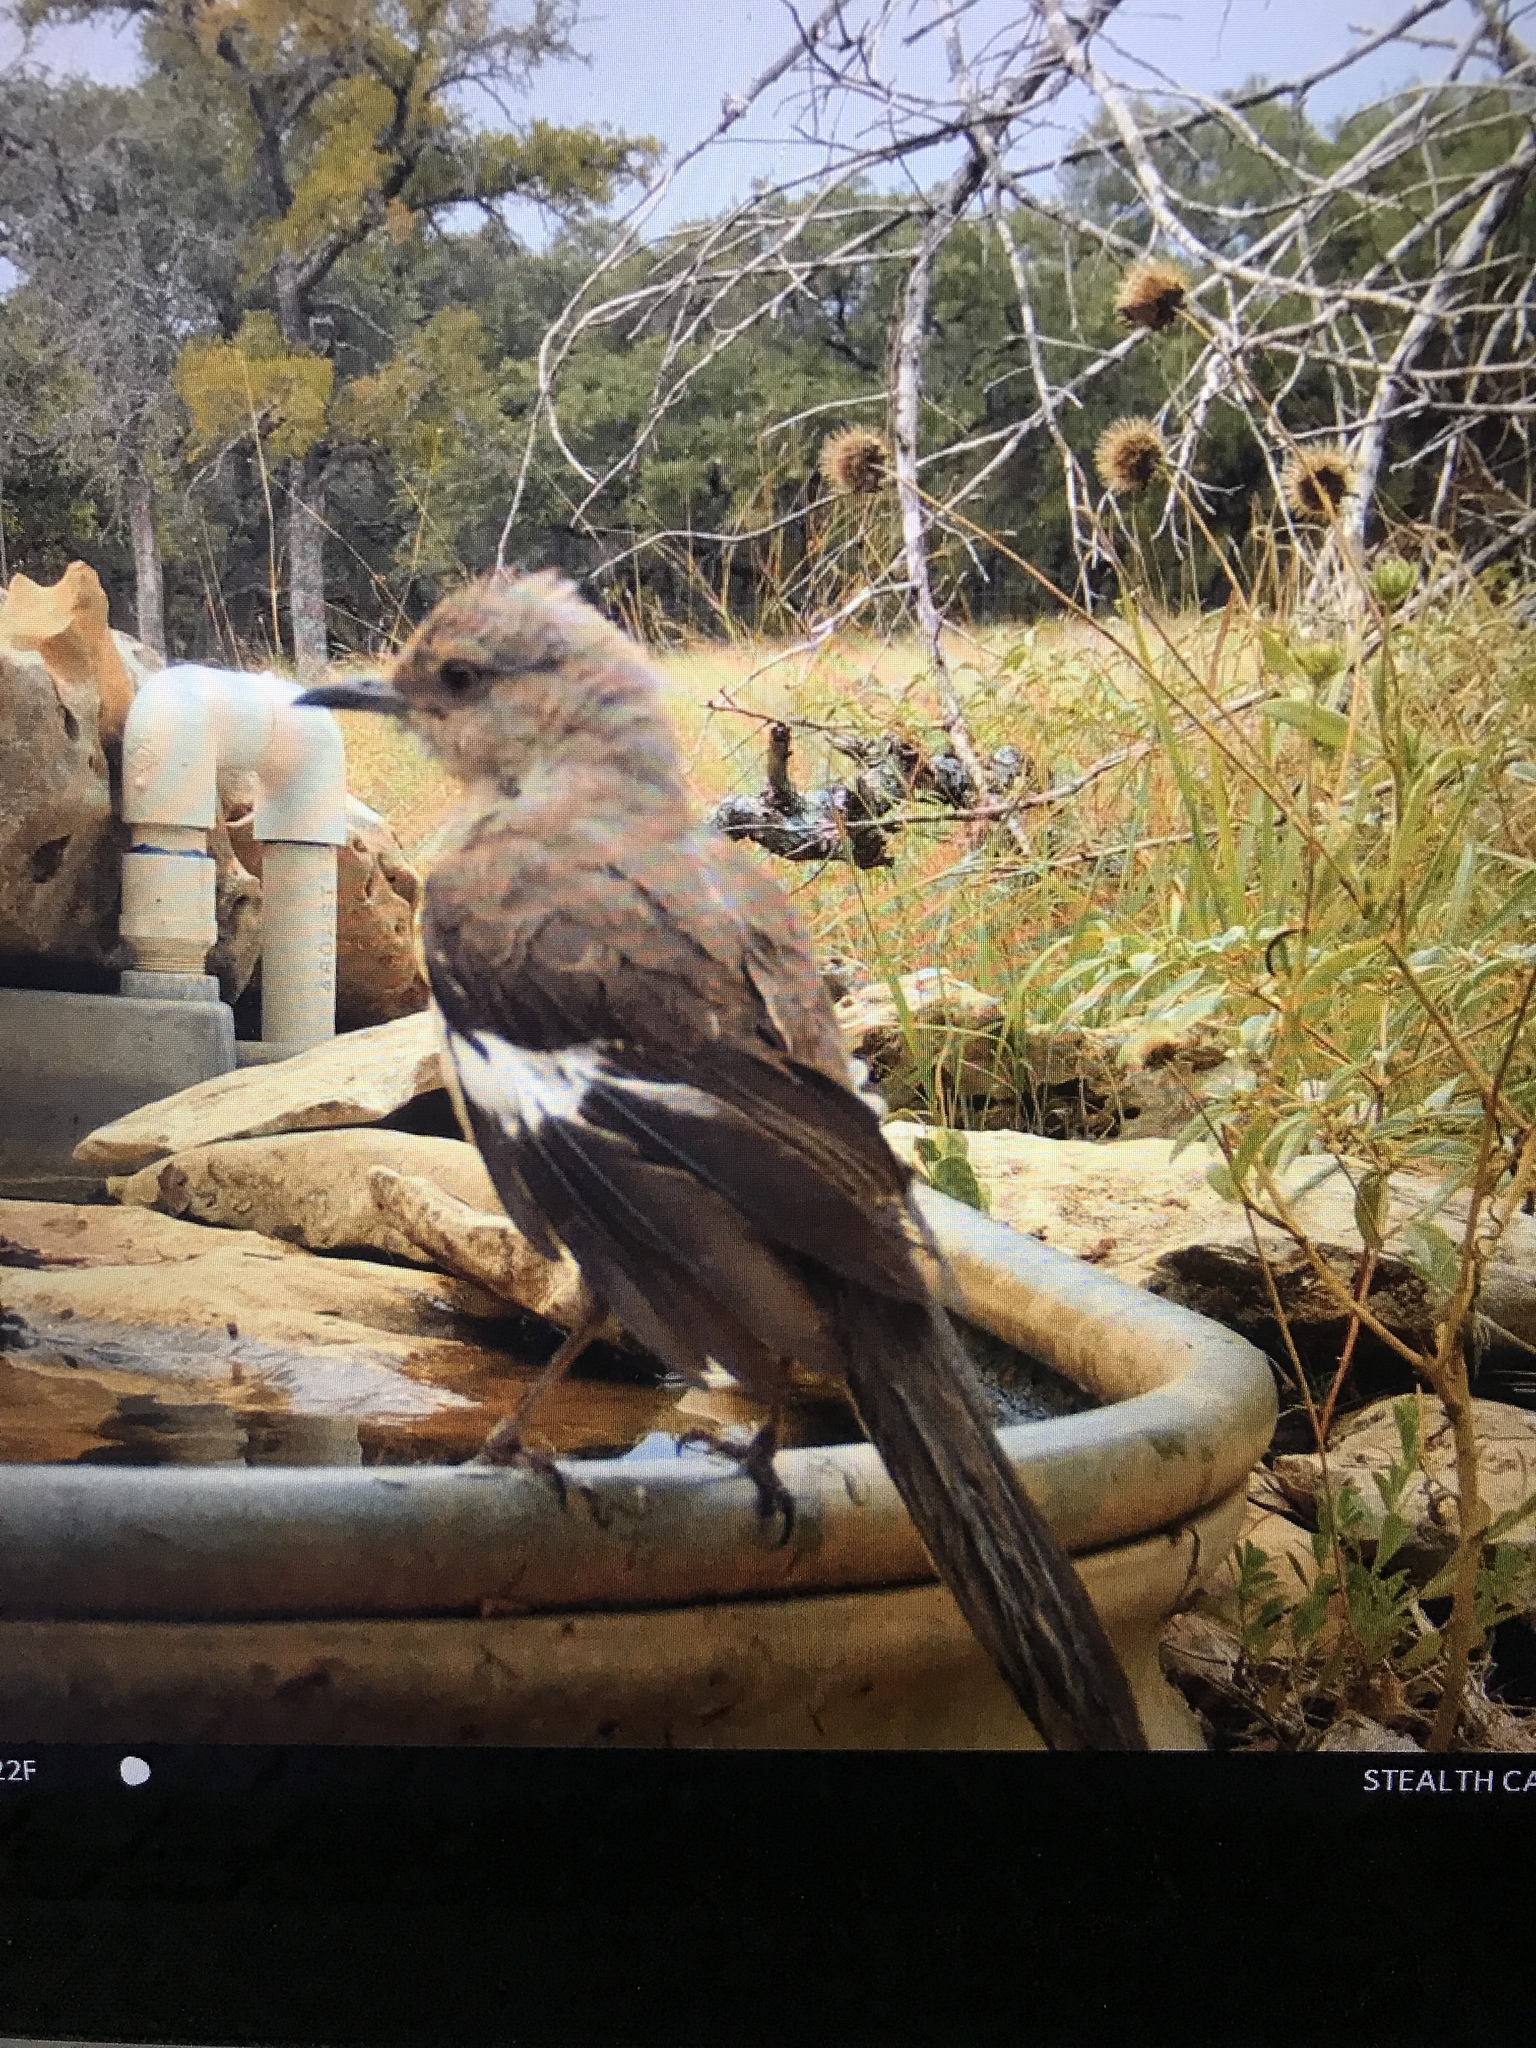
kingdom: Animalia
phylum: Chordata
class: Aves
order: Passeriformes
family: Mimidae
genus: Mimus
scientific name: Mimus polyglottos
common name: Northern mockingbird
